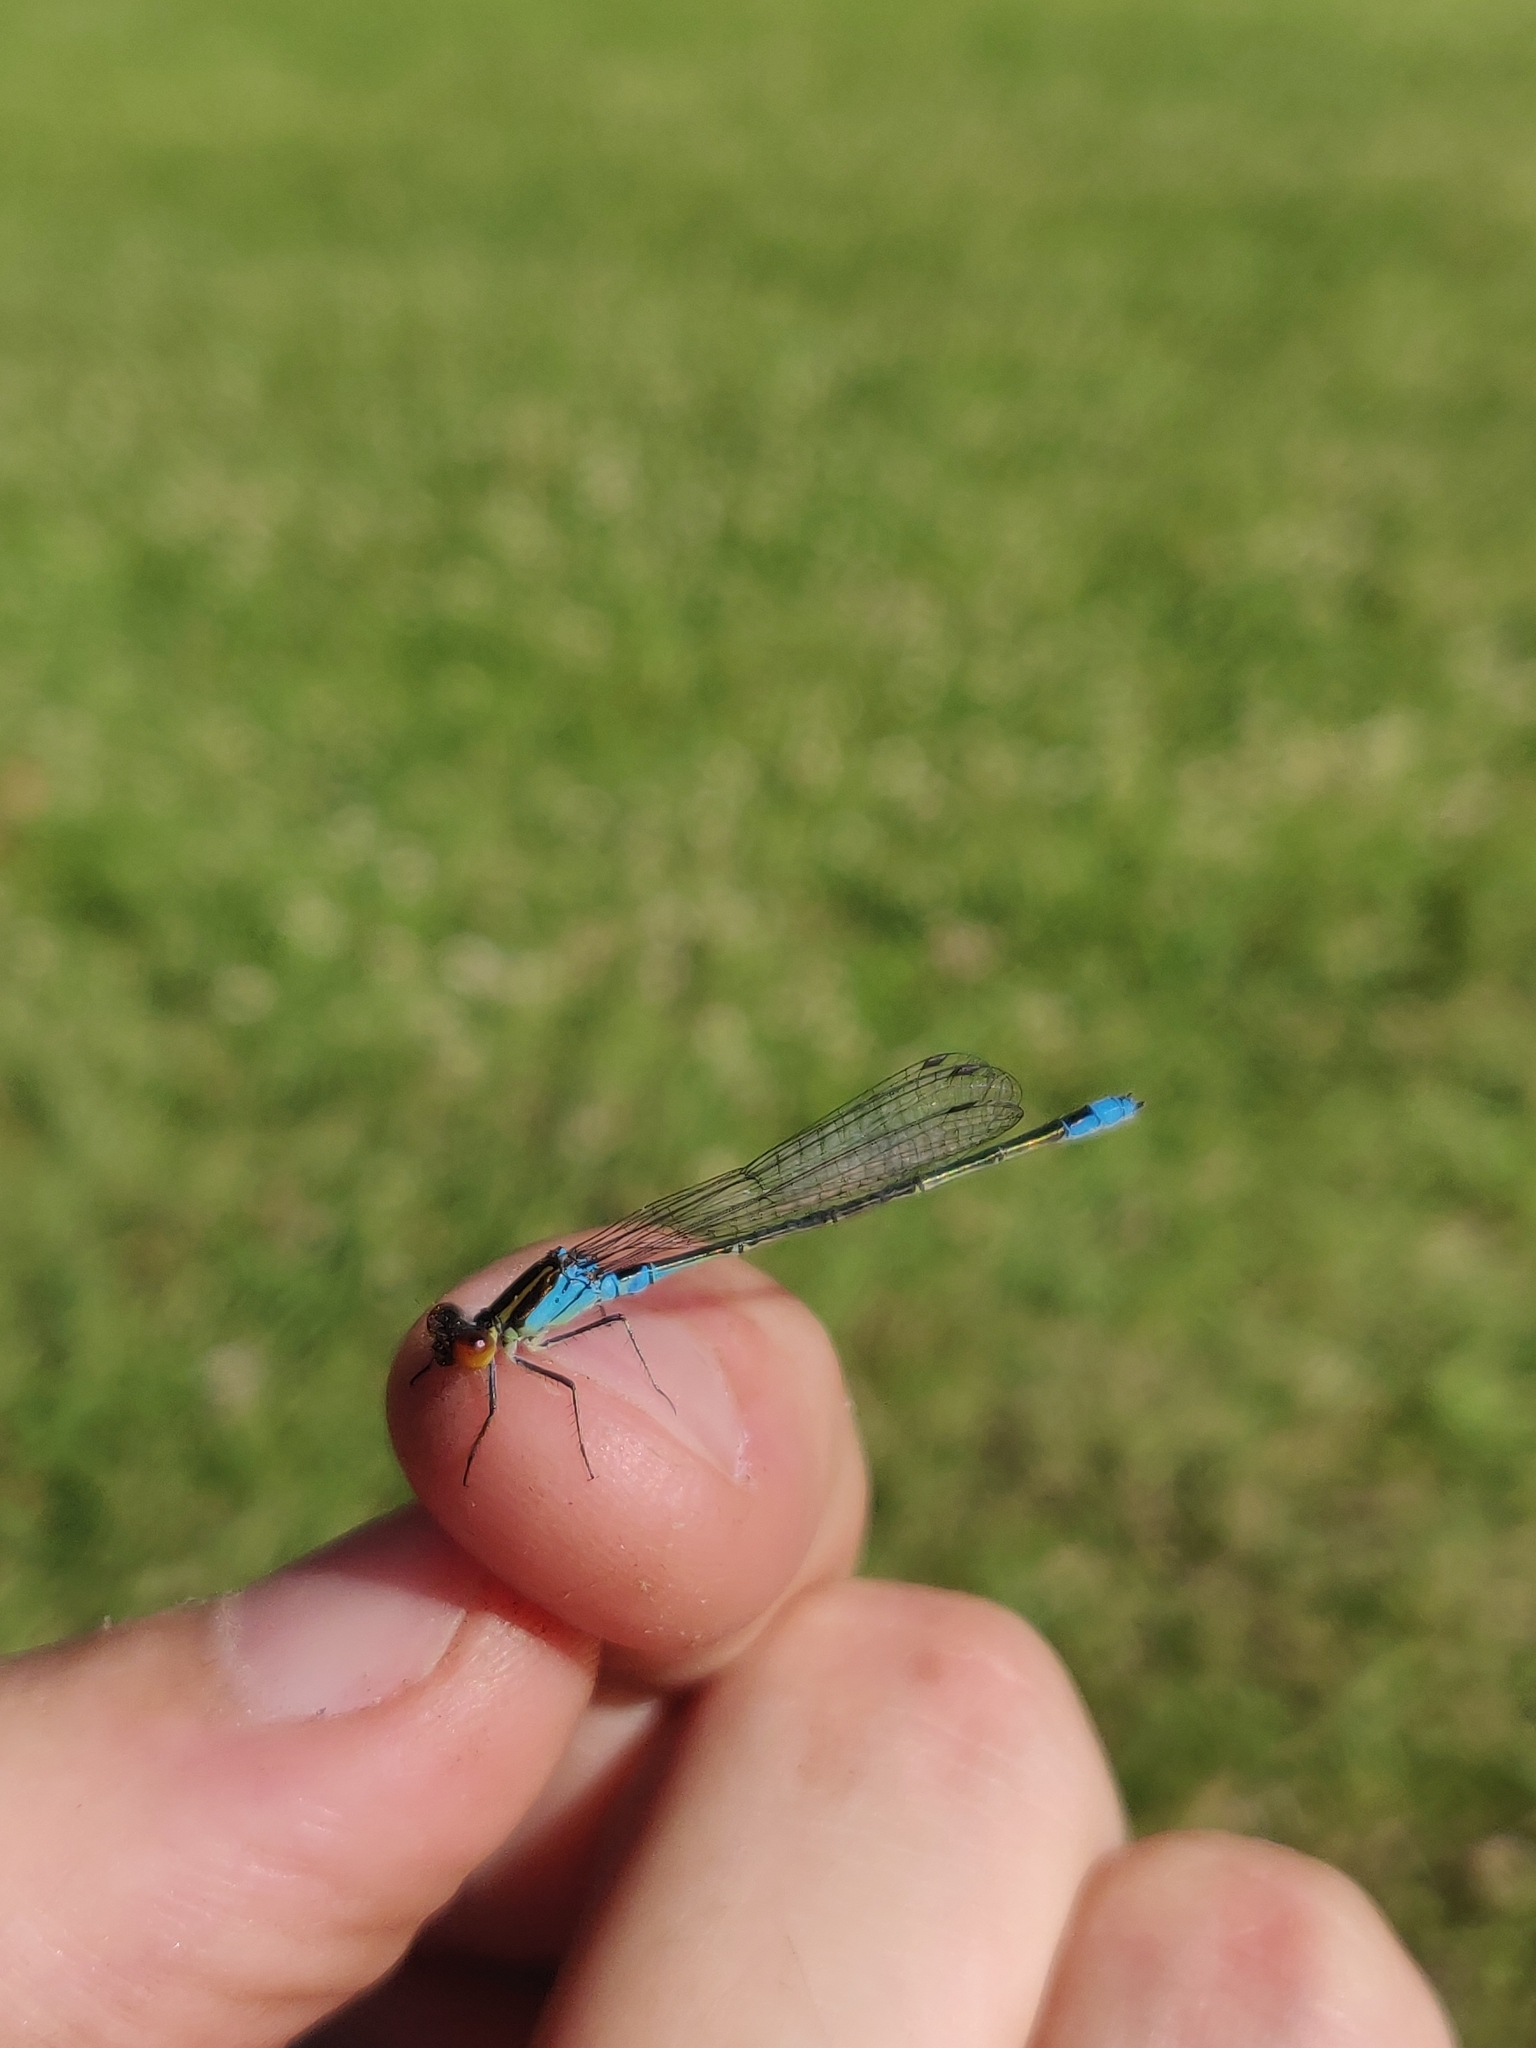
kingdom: Animalia
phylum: Arthropoda
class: Insecta
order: Odonata
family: Coenagrionidae
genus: Erythromma
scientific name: Erythromma viridulum
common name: Small red-eyed damselfly
